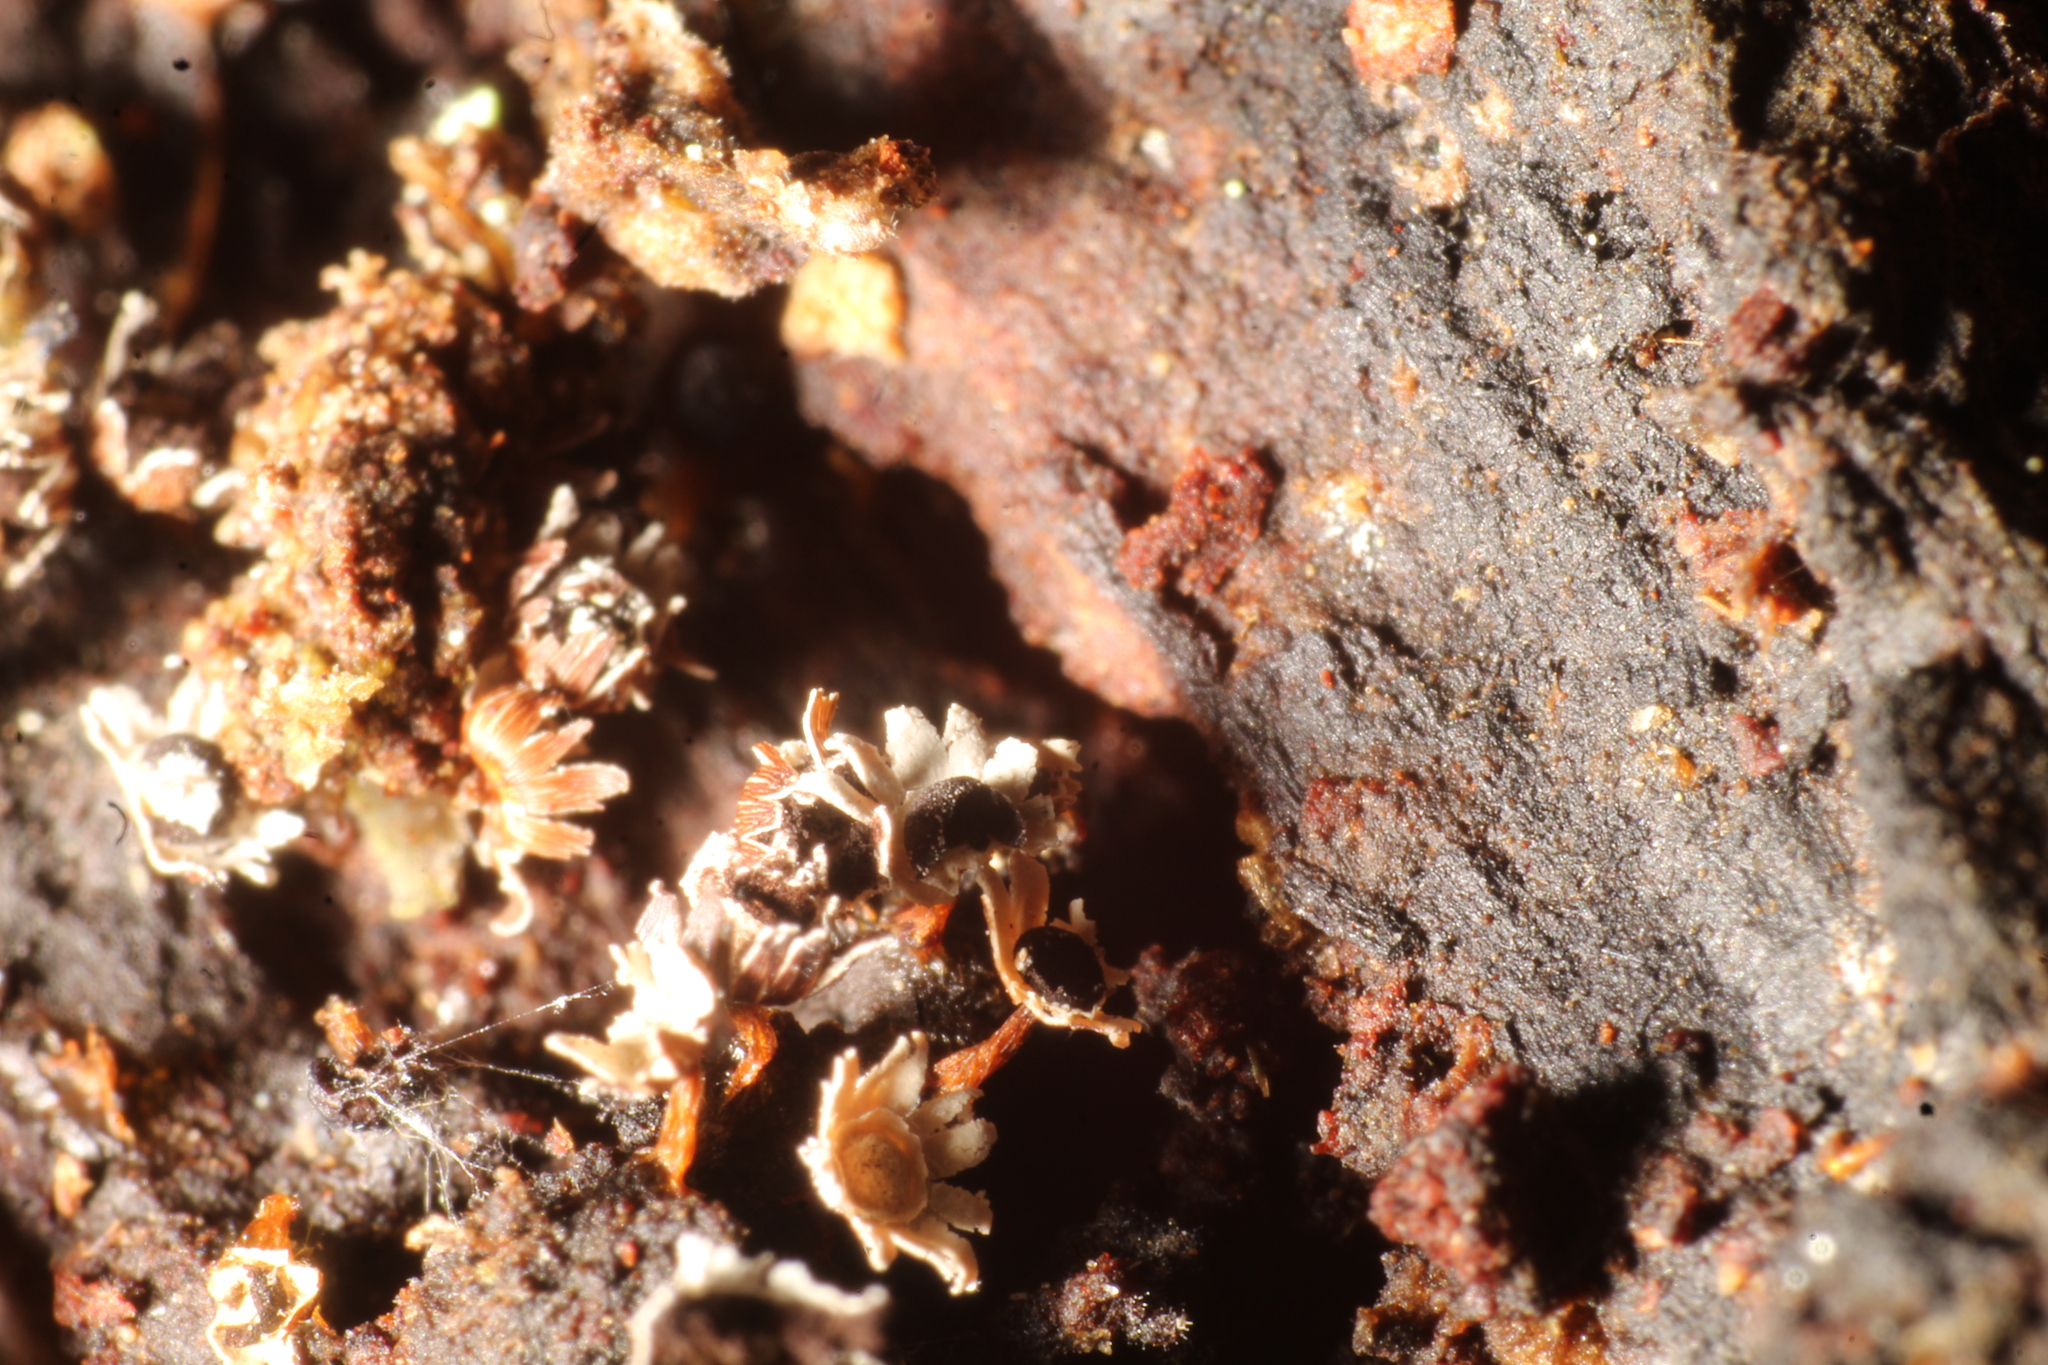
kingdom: Protozoa
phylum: Mycetozoa
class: Myxomycetes
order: Physarales
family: Didymiaceae
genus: Diderma
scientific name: Diderma asteroides
